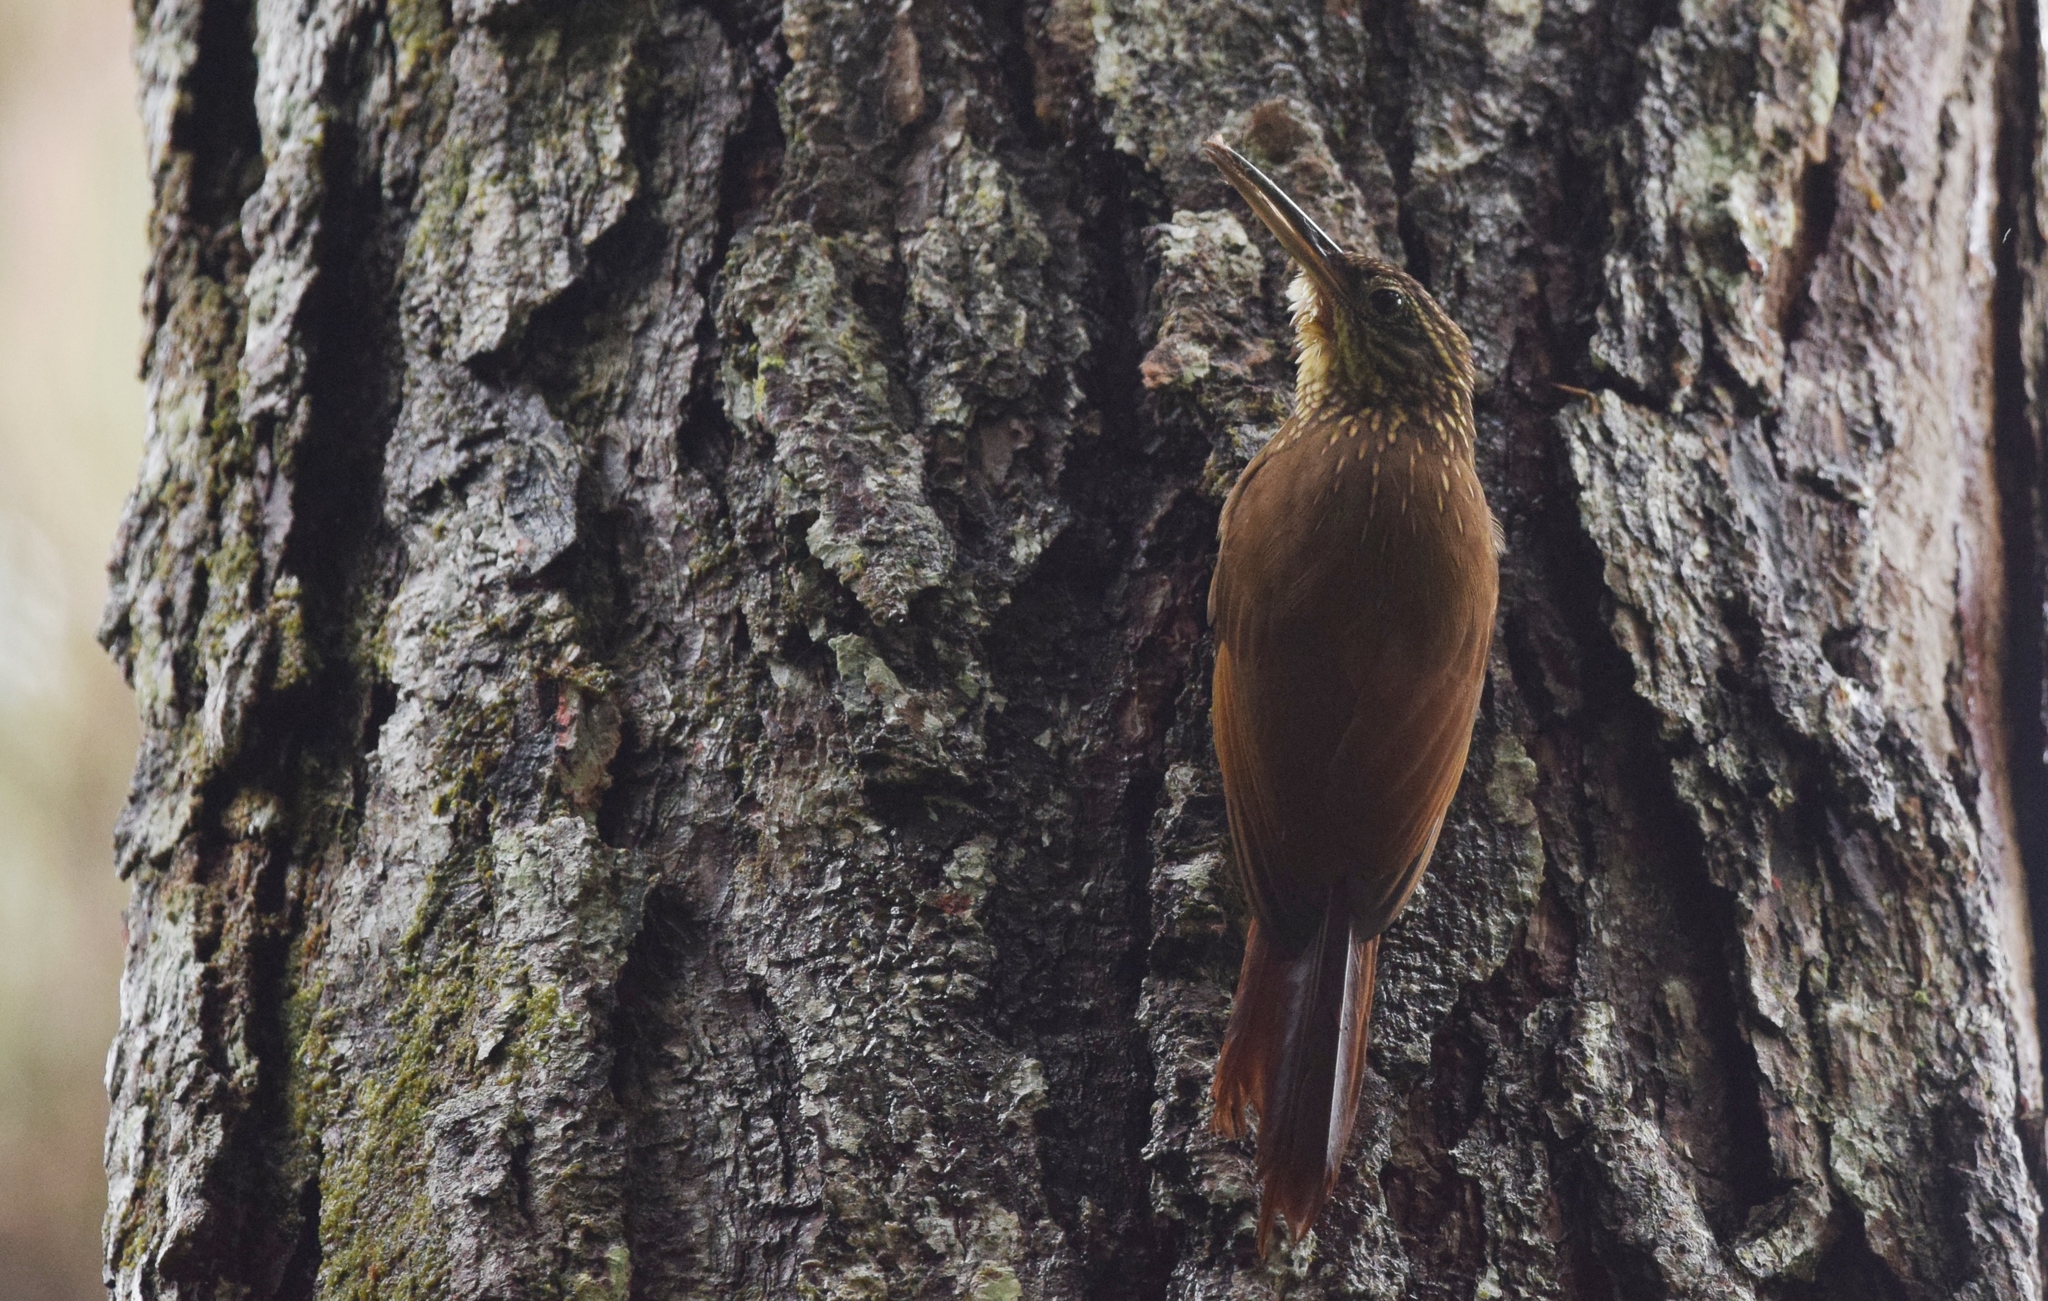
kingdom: Animalia
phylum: Chordata
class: Aves
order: Passeriformes
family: Furnariidae
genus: Xiphorhynchus
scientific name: Xiphorhynchus susurrans
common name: Cocoa woodcreeper
